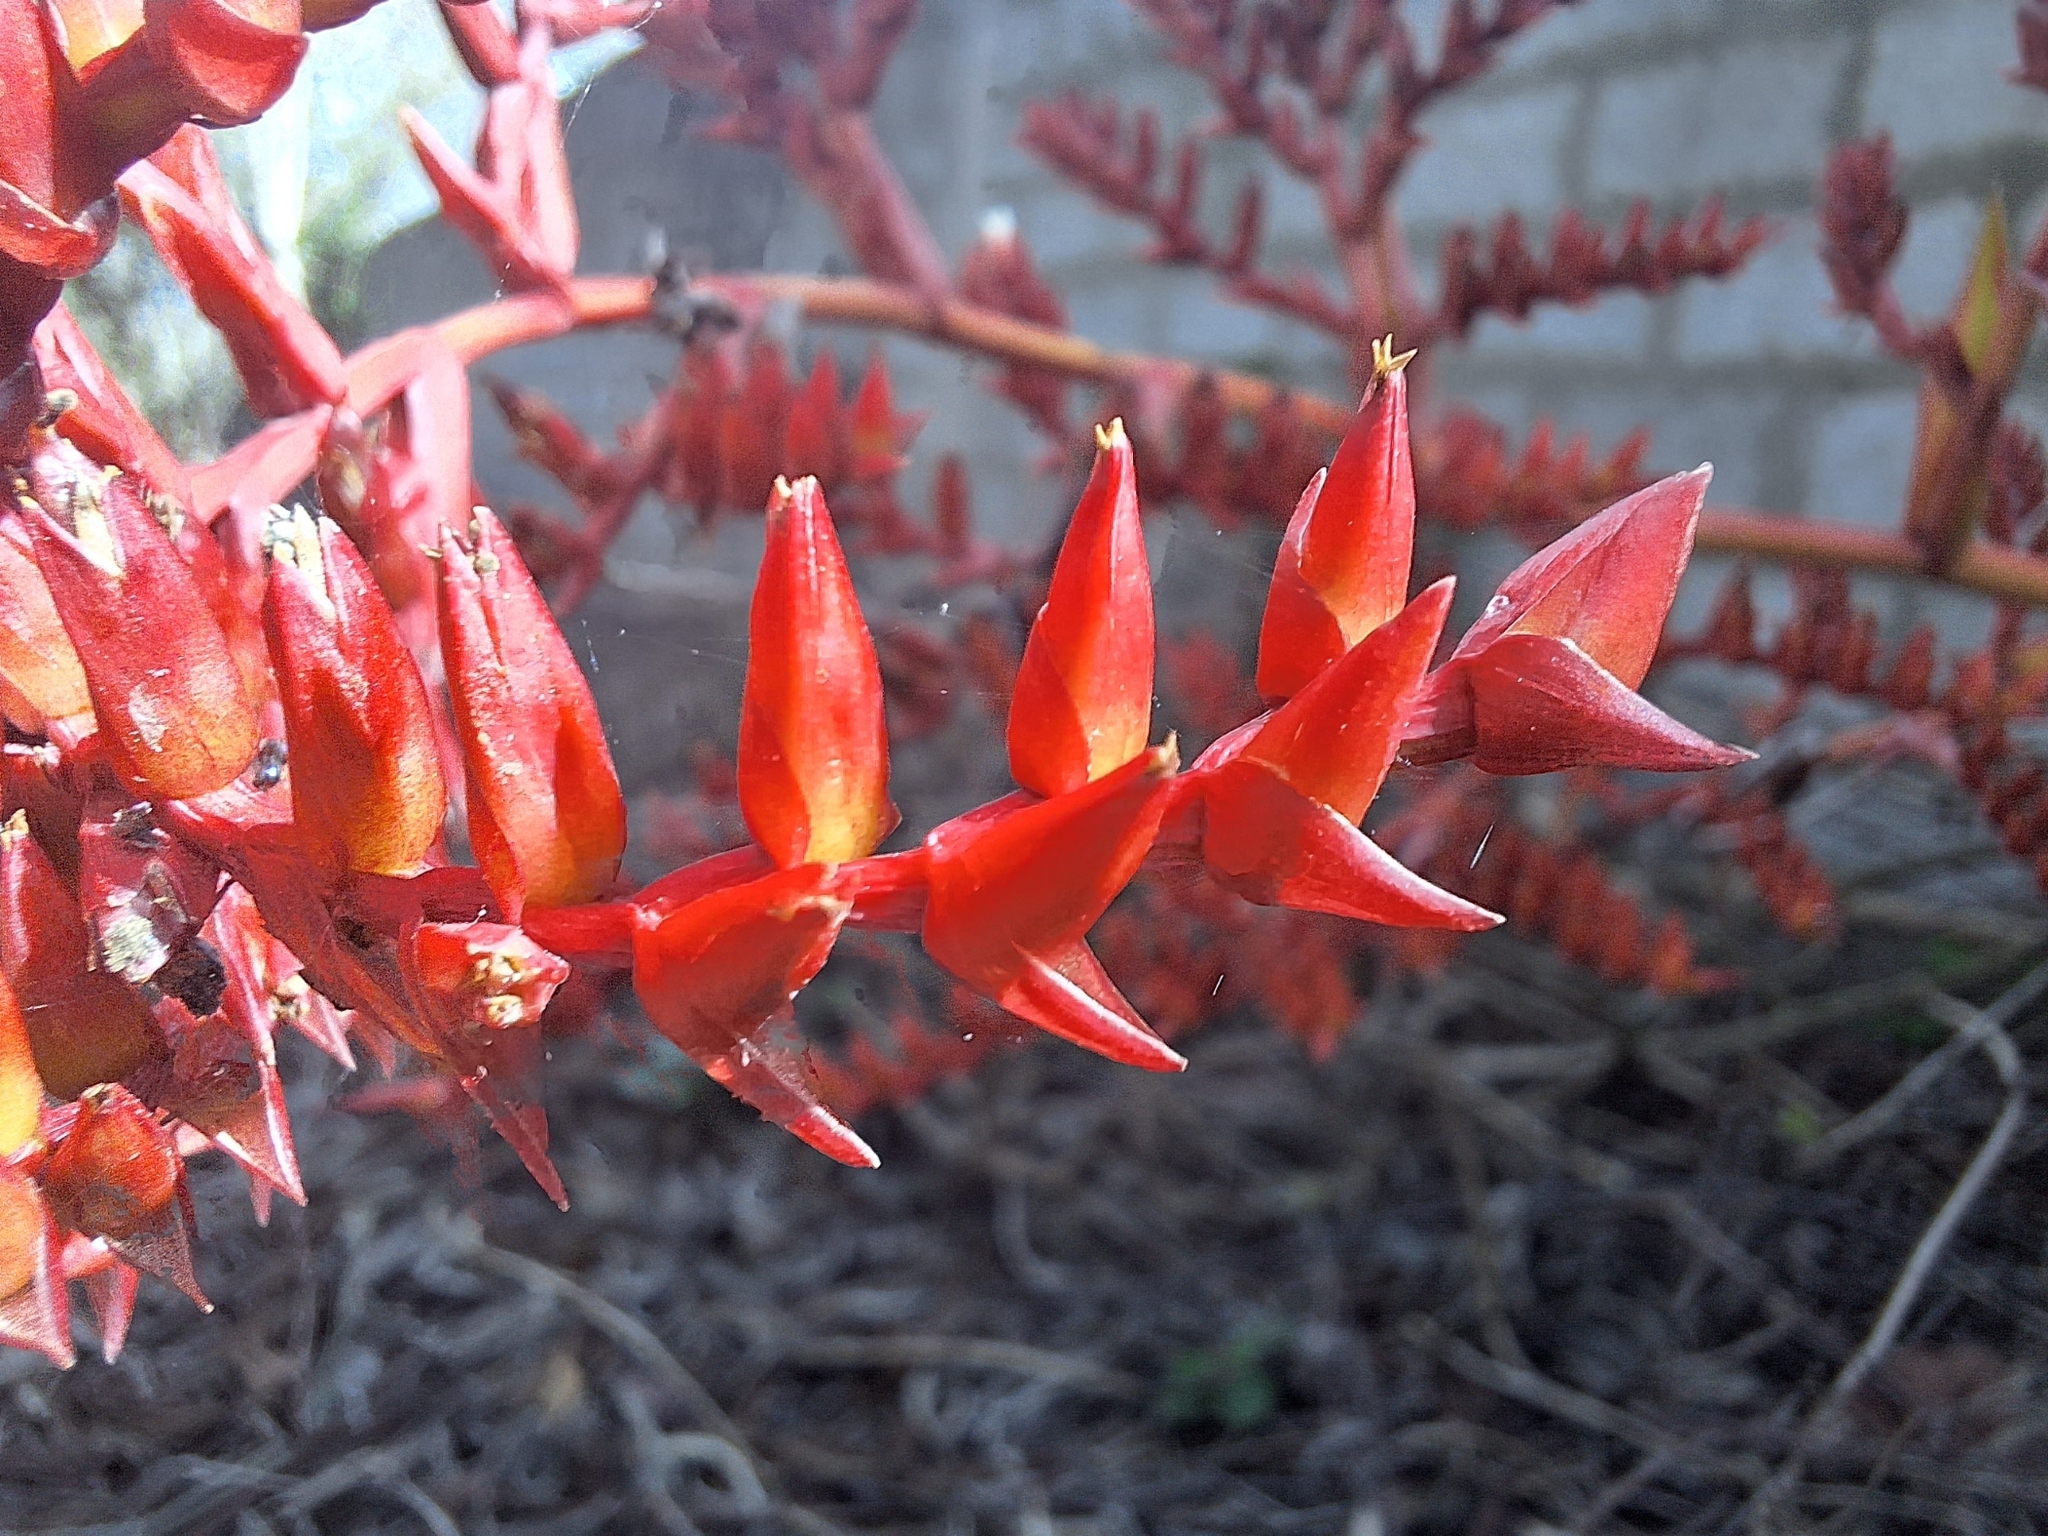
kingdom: Plantae
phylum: Tracheophyta
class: Liliopsida
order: Poales
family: Bromeliaceae
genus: Racinaea
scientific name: Racinaea fraseri
